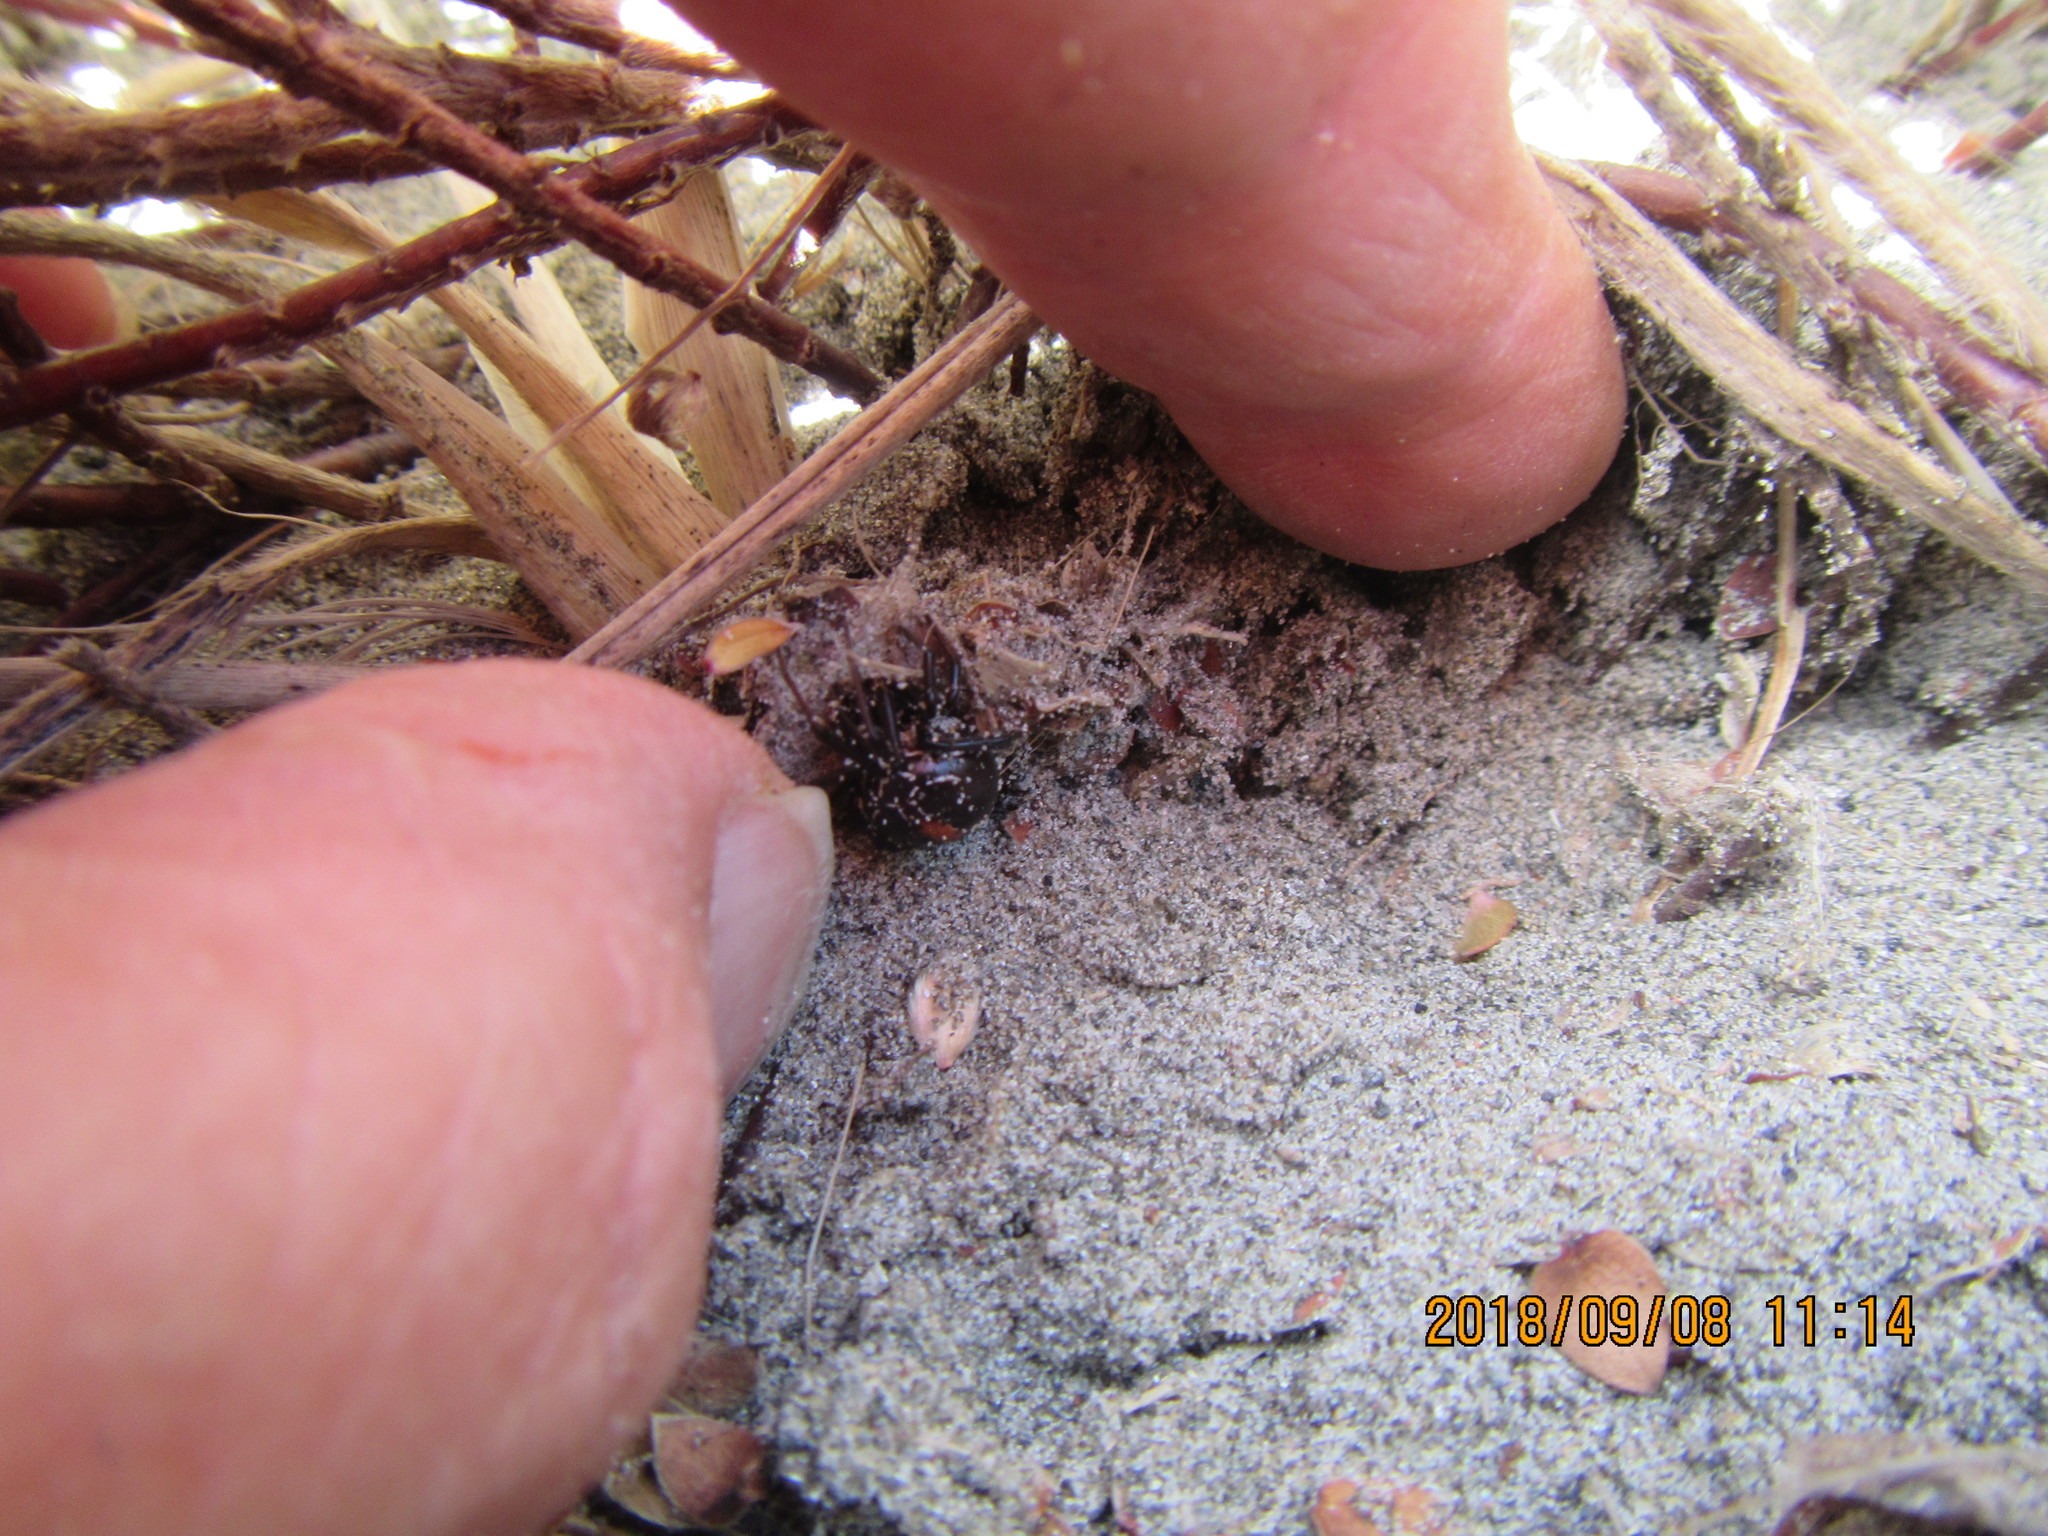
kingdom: Animalia
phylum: Arthropoda
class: Arachnida
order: Araneae
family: Theridiidae
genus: Latrodectus
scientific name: Latrodectus katipo
